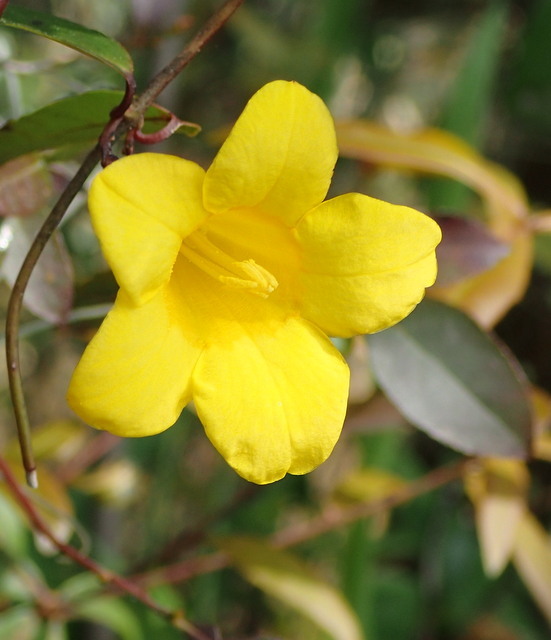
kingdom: Plantae
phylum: Tracheophyta
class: Magnoliopsida
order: Gentianales
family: Gelsemiaceae
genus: Gelsemium
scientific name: Gelsemium rankinii
